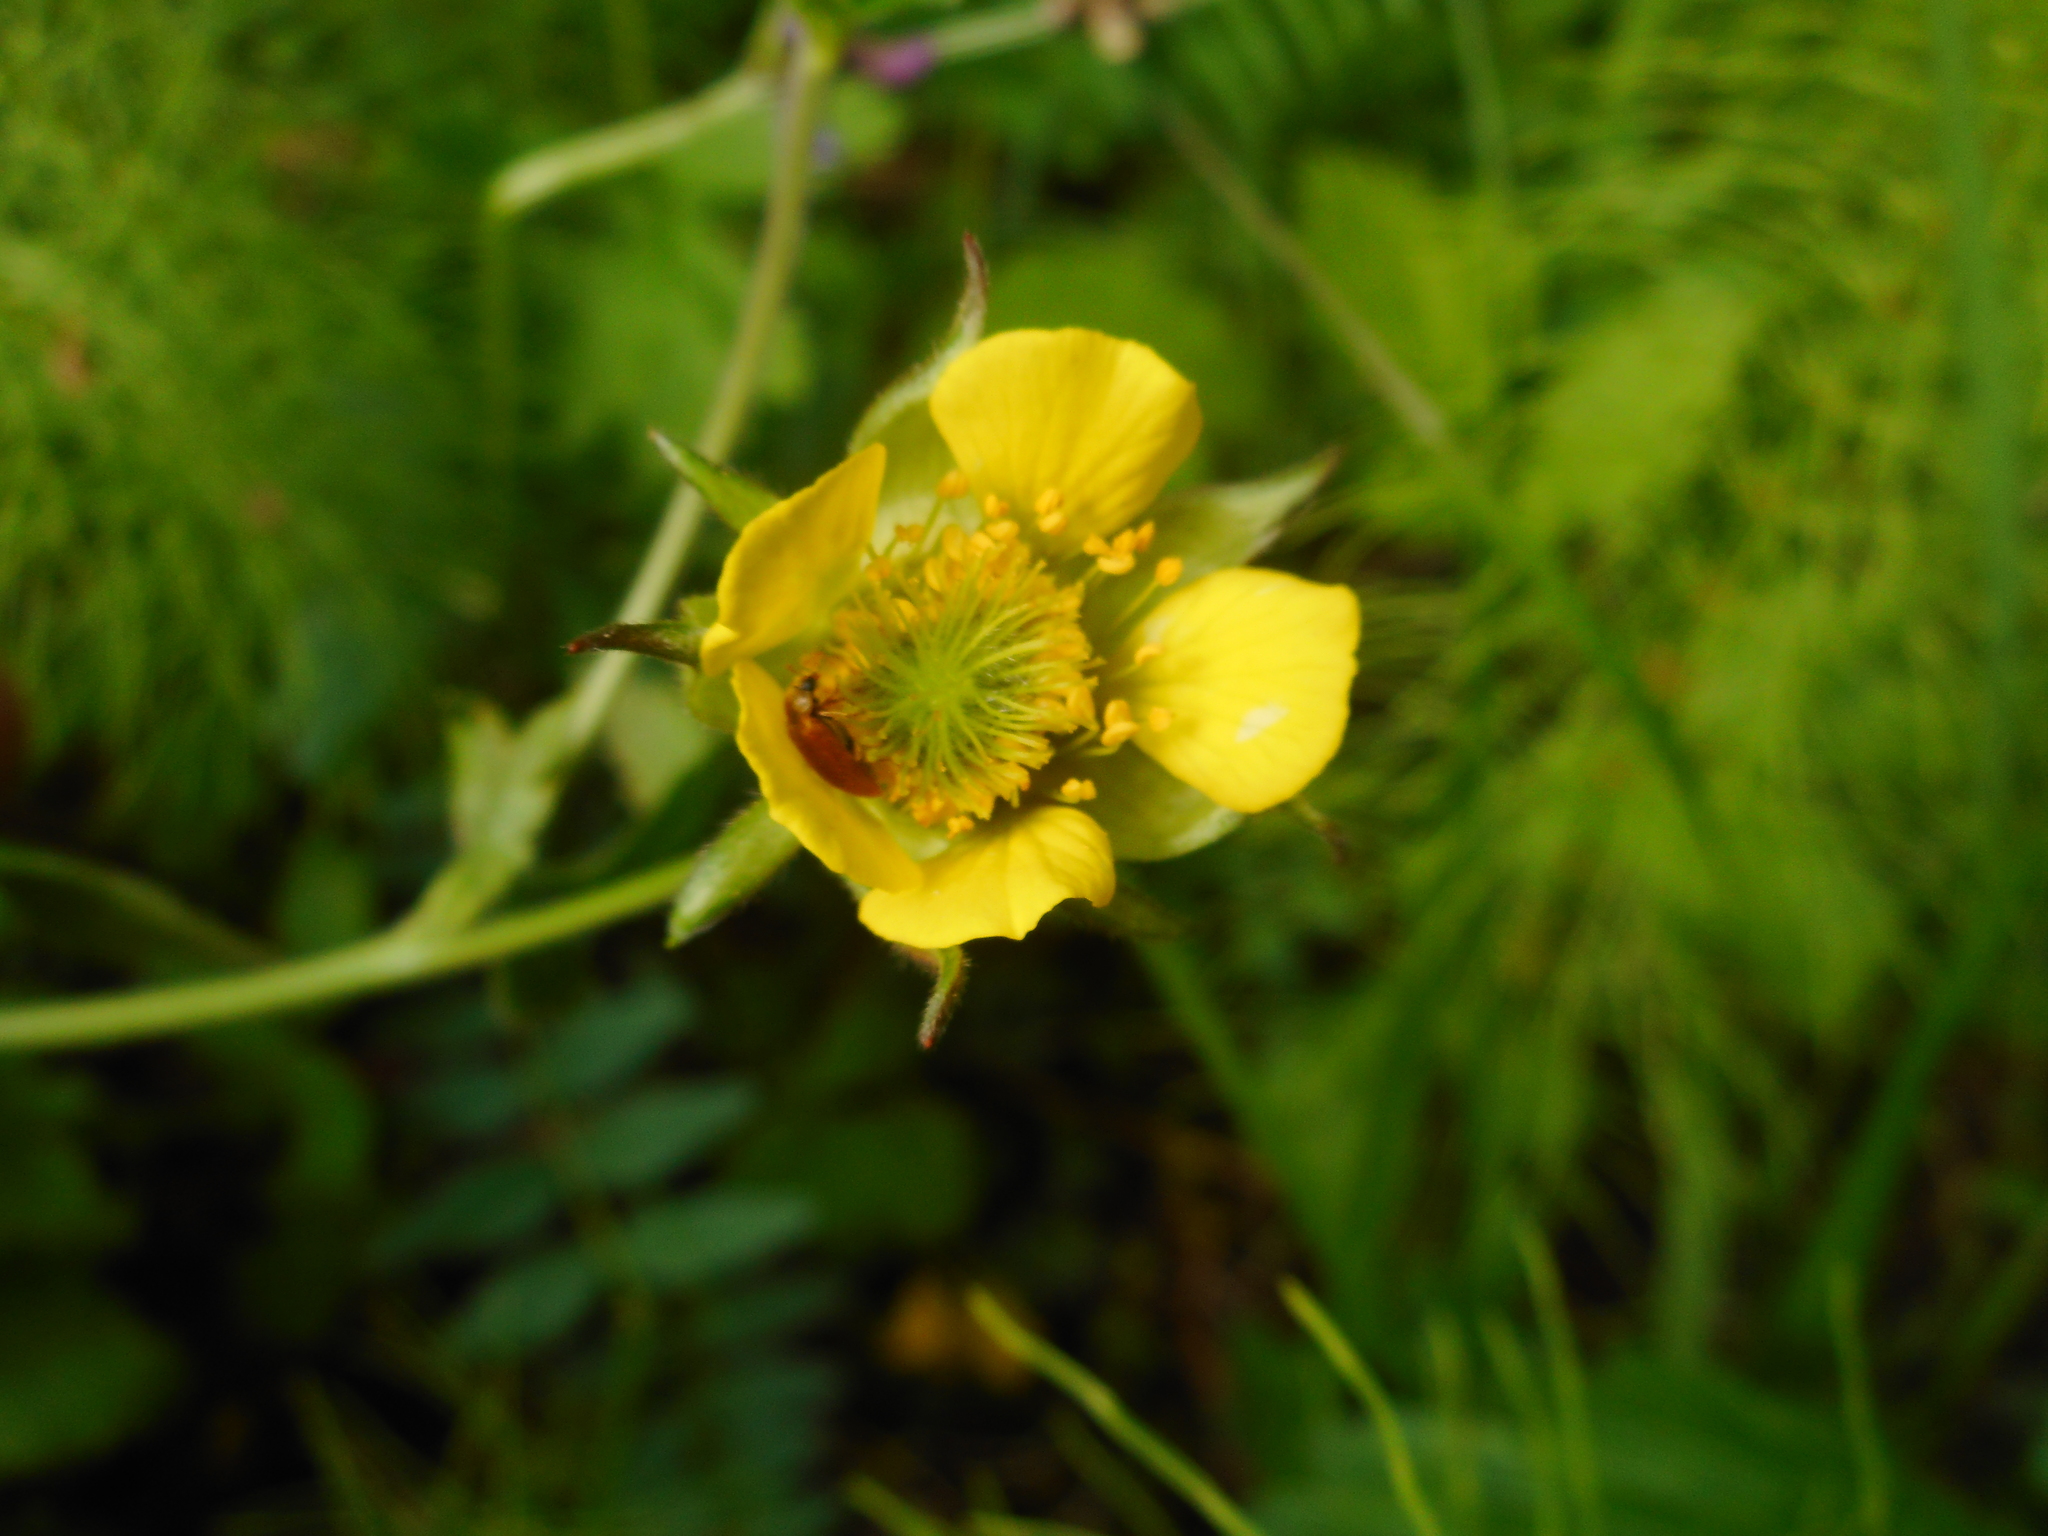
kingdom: Plantae
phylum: Tracheophyta
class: Magnoliopsida
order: Rosales
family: Rosaceae
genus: Geum
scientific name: Geum intermedium
